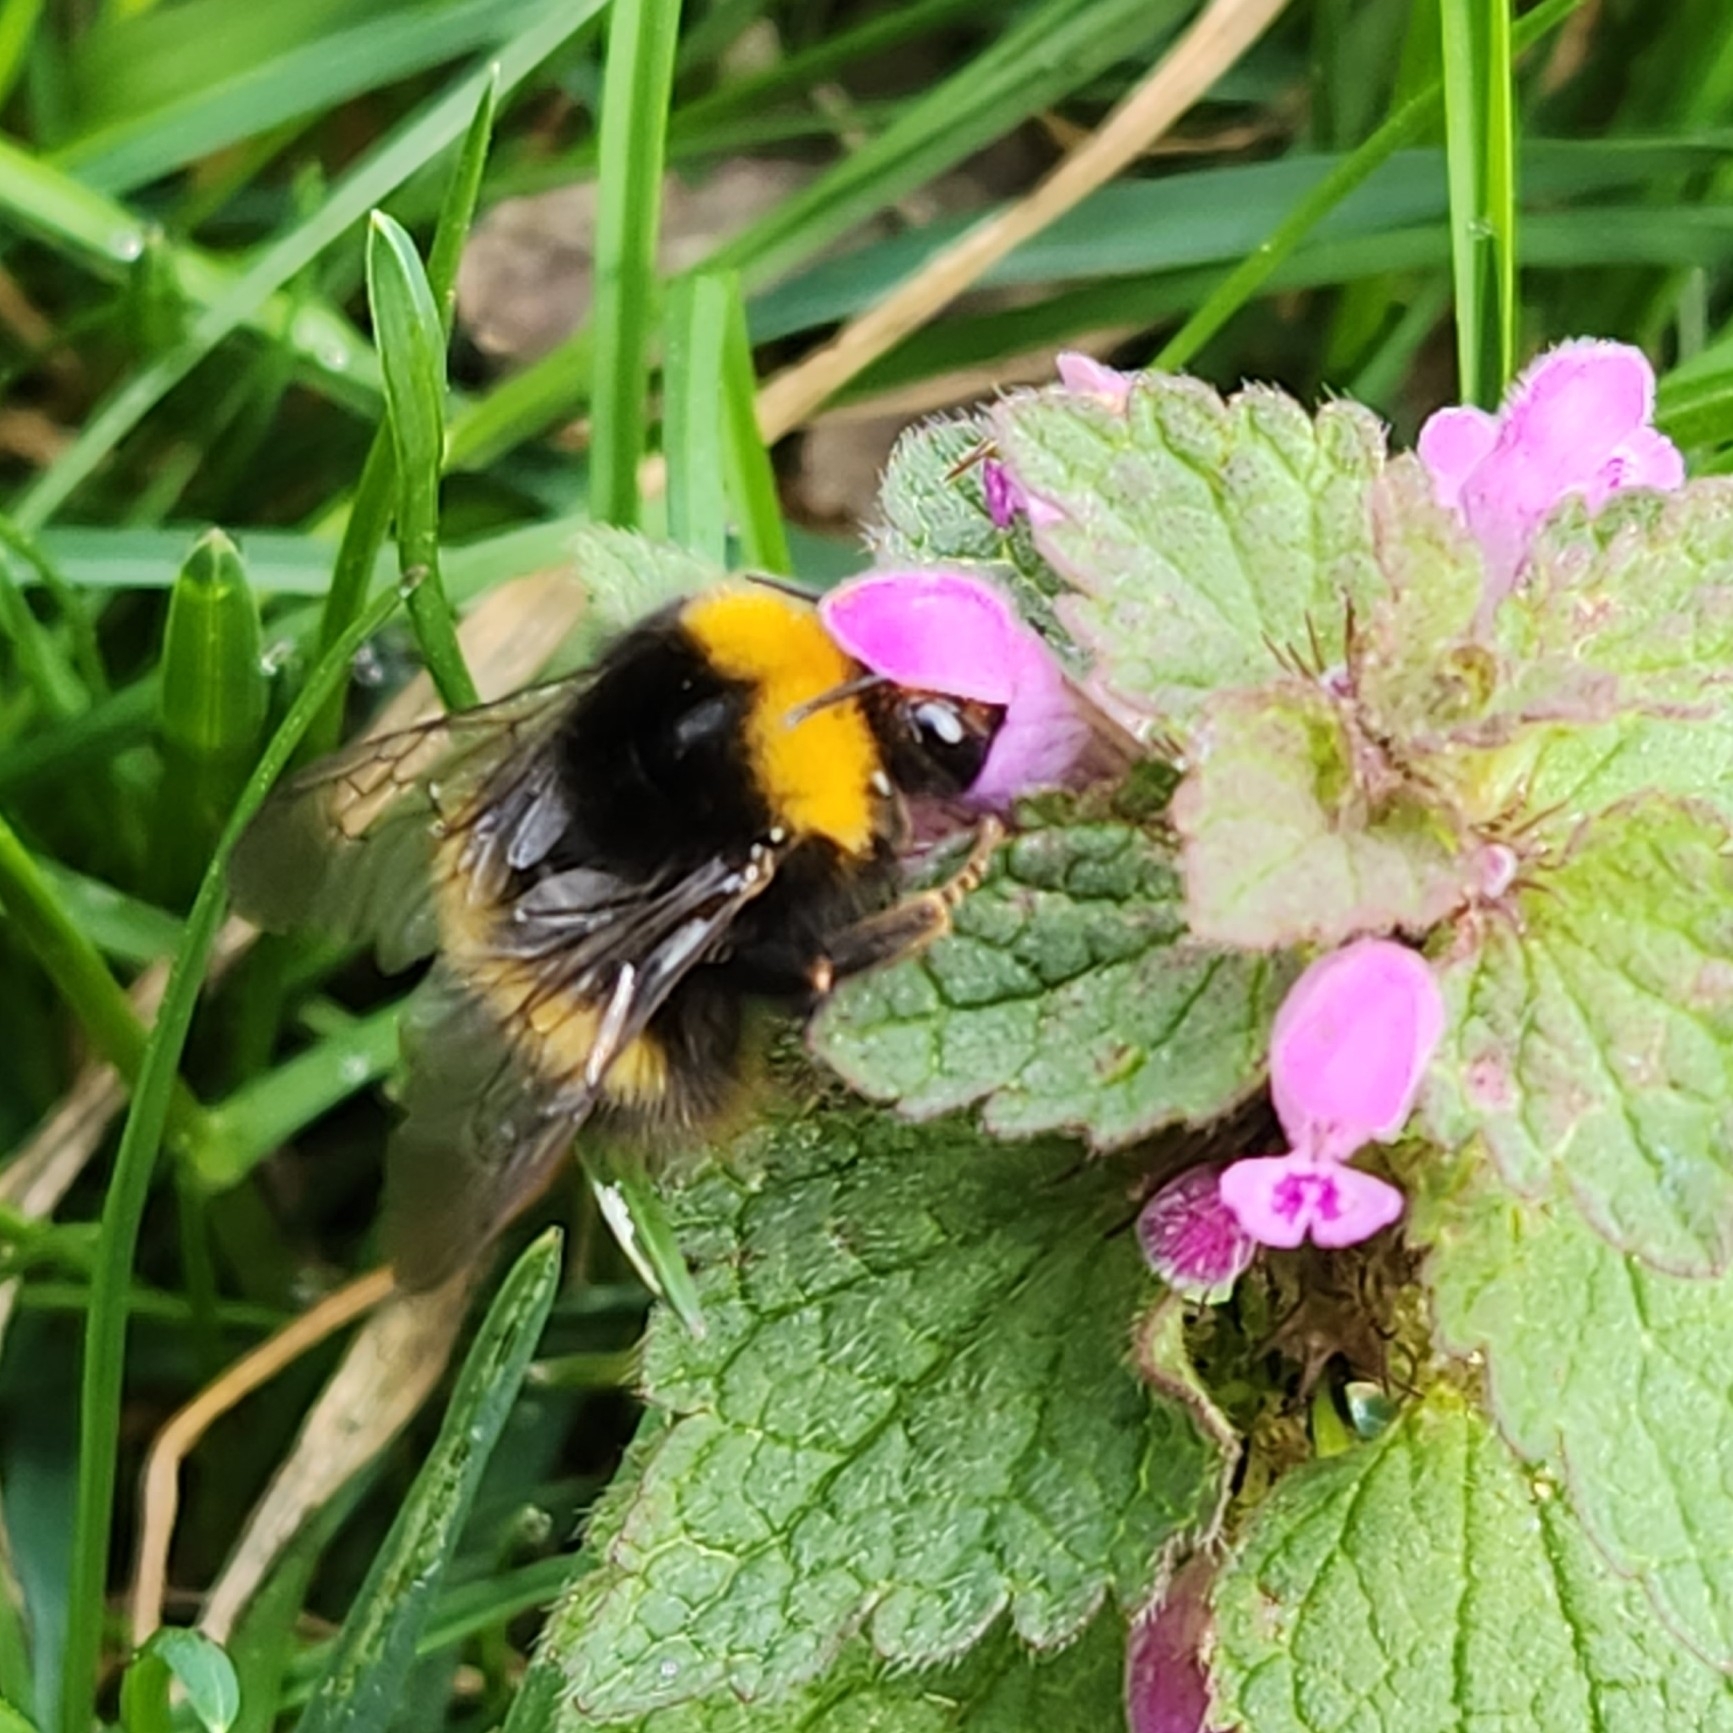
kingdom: Animalia
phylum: Arthropoda
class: Insecta
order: Hymenoptera
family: Apidae
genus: Bombus
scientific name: Bombus pratorum
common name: Early humble-bee
